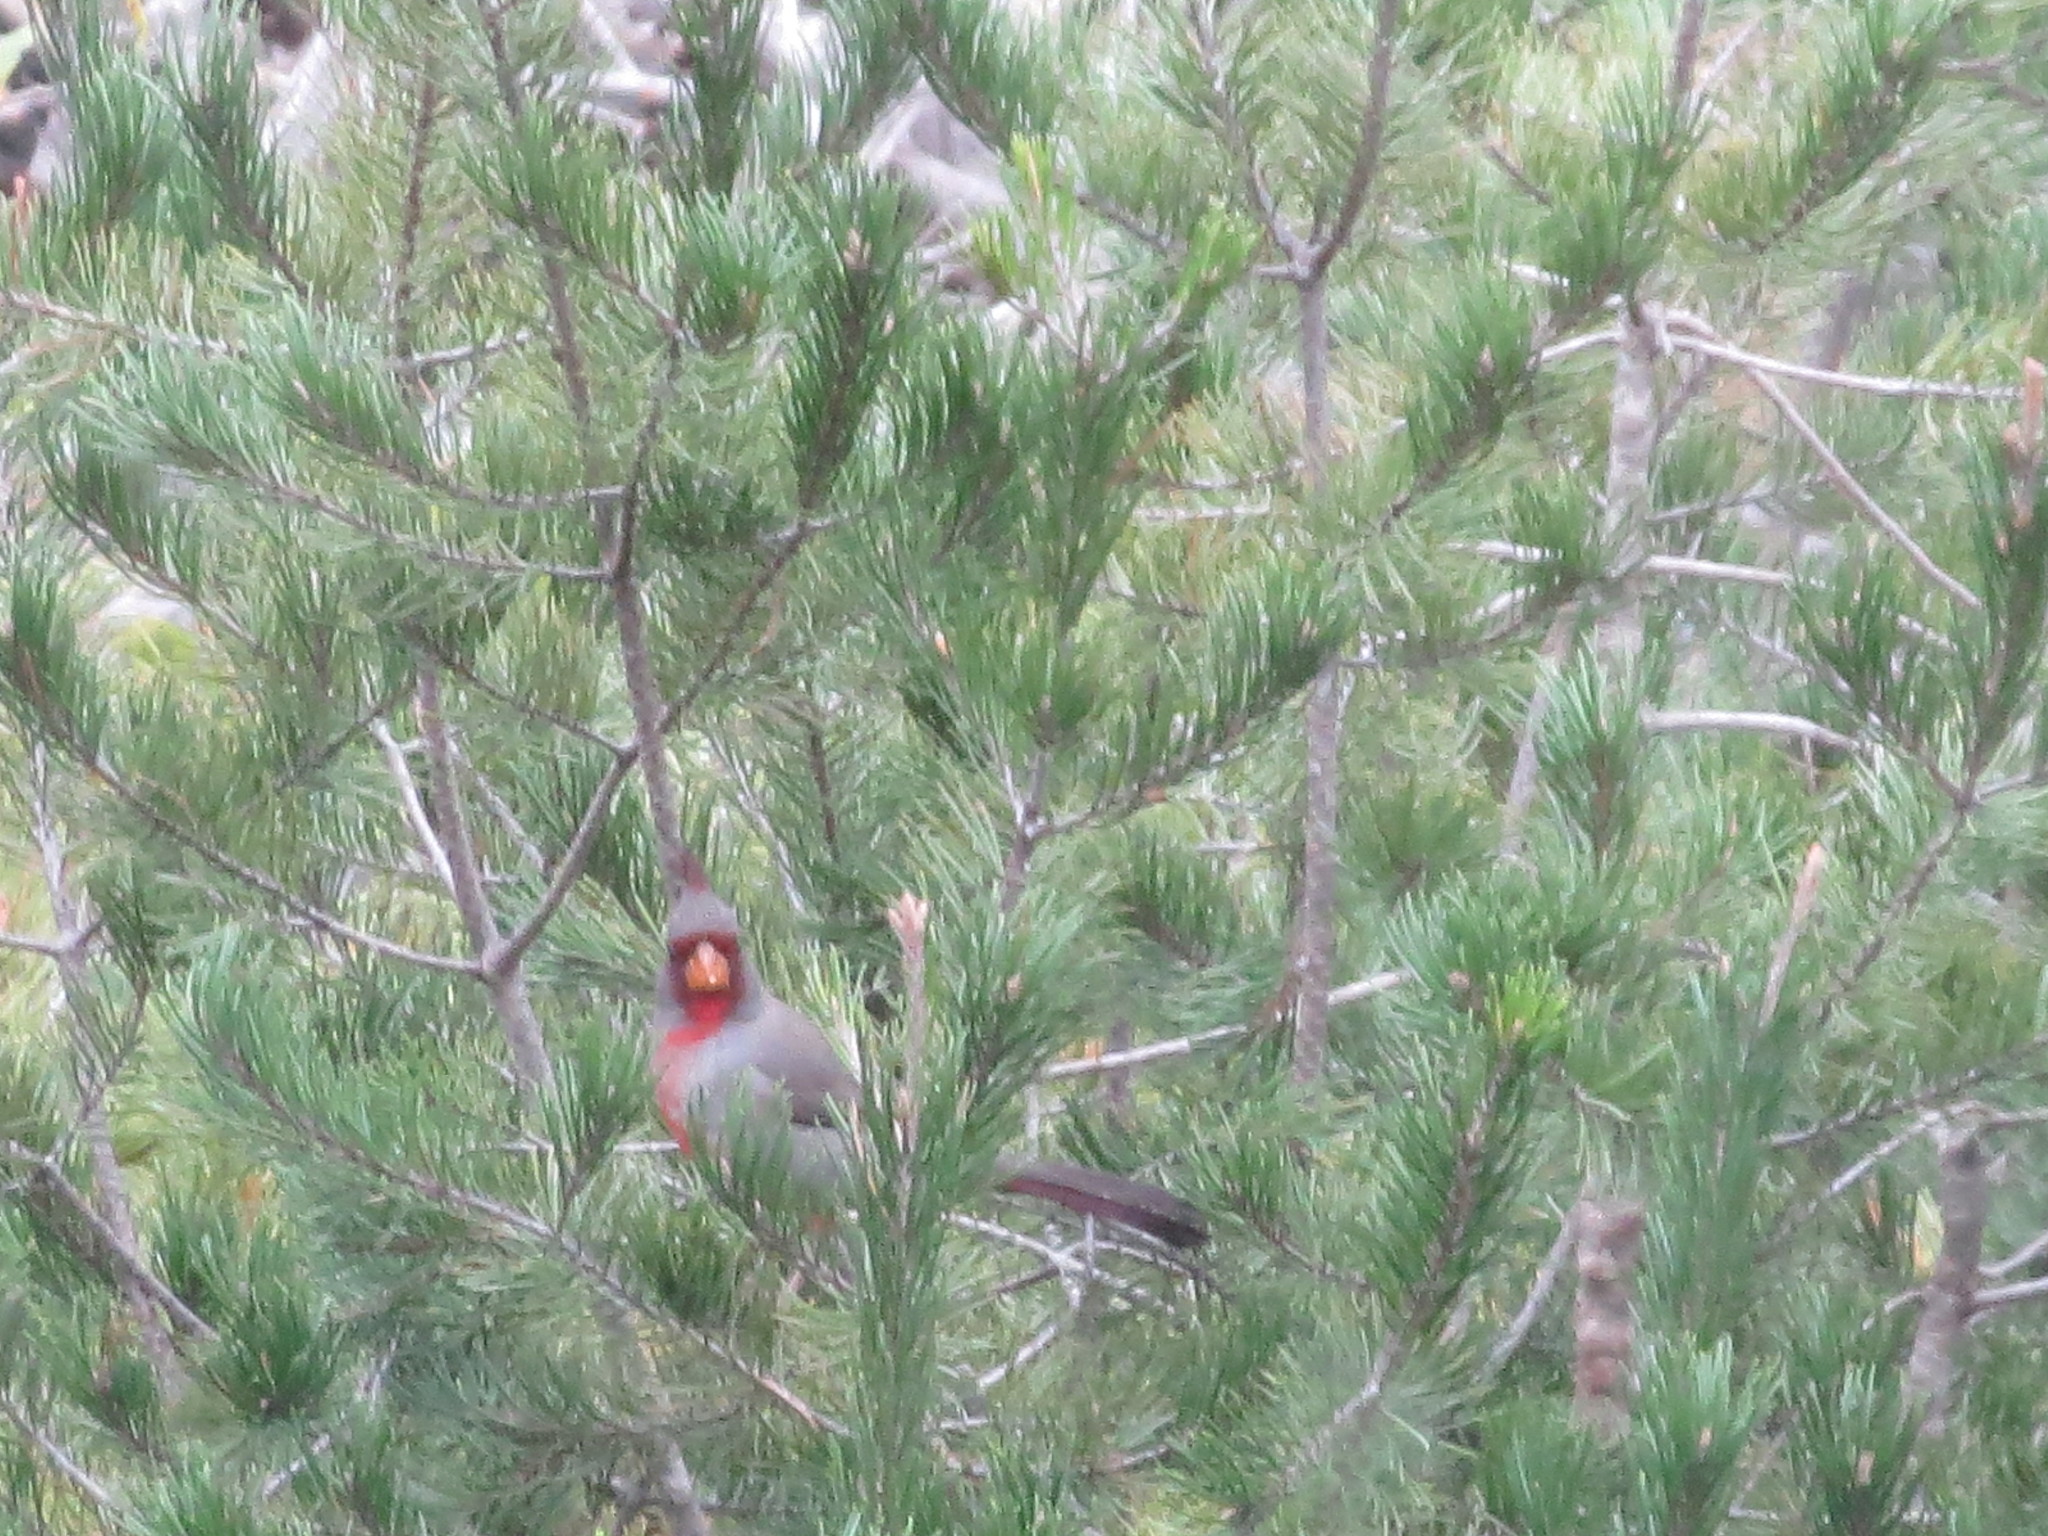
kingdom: Animalia
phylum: Chordata
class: Aves
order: Passeriformes
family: Cardinalidae
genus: Cardinalis
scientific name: Cardinalis sinuatus
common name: Pyrrhuloxia
